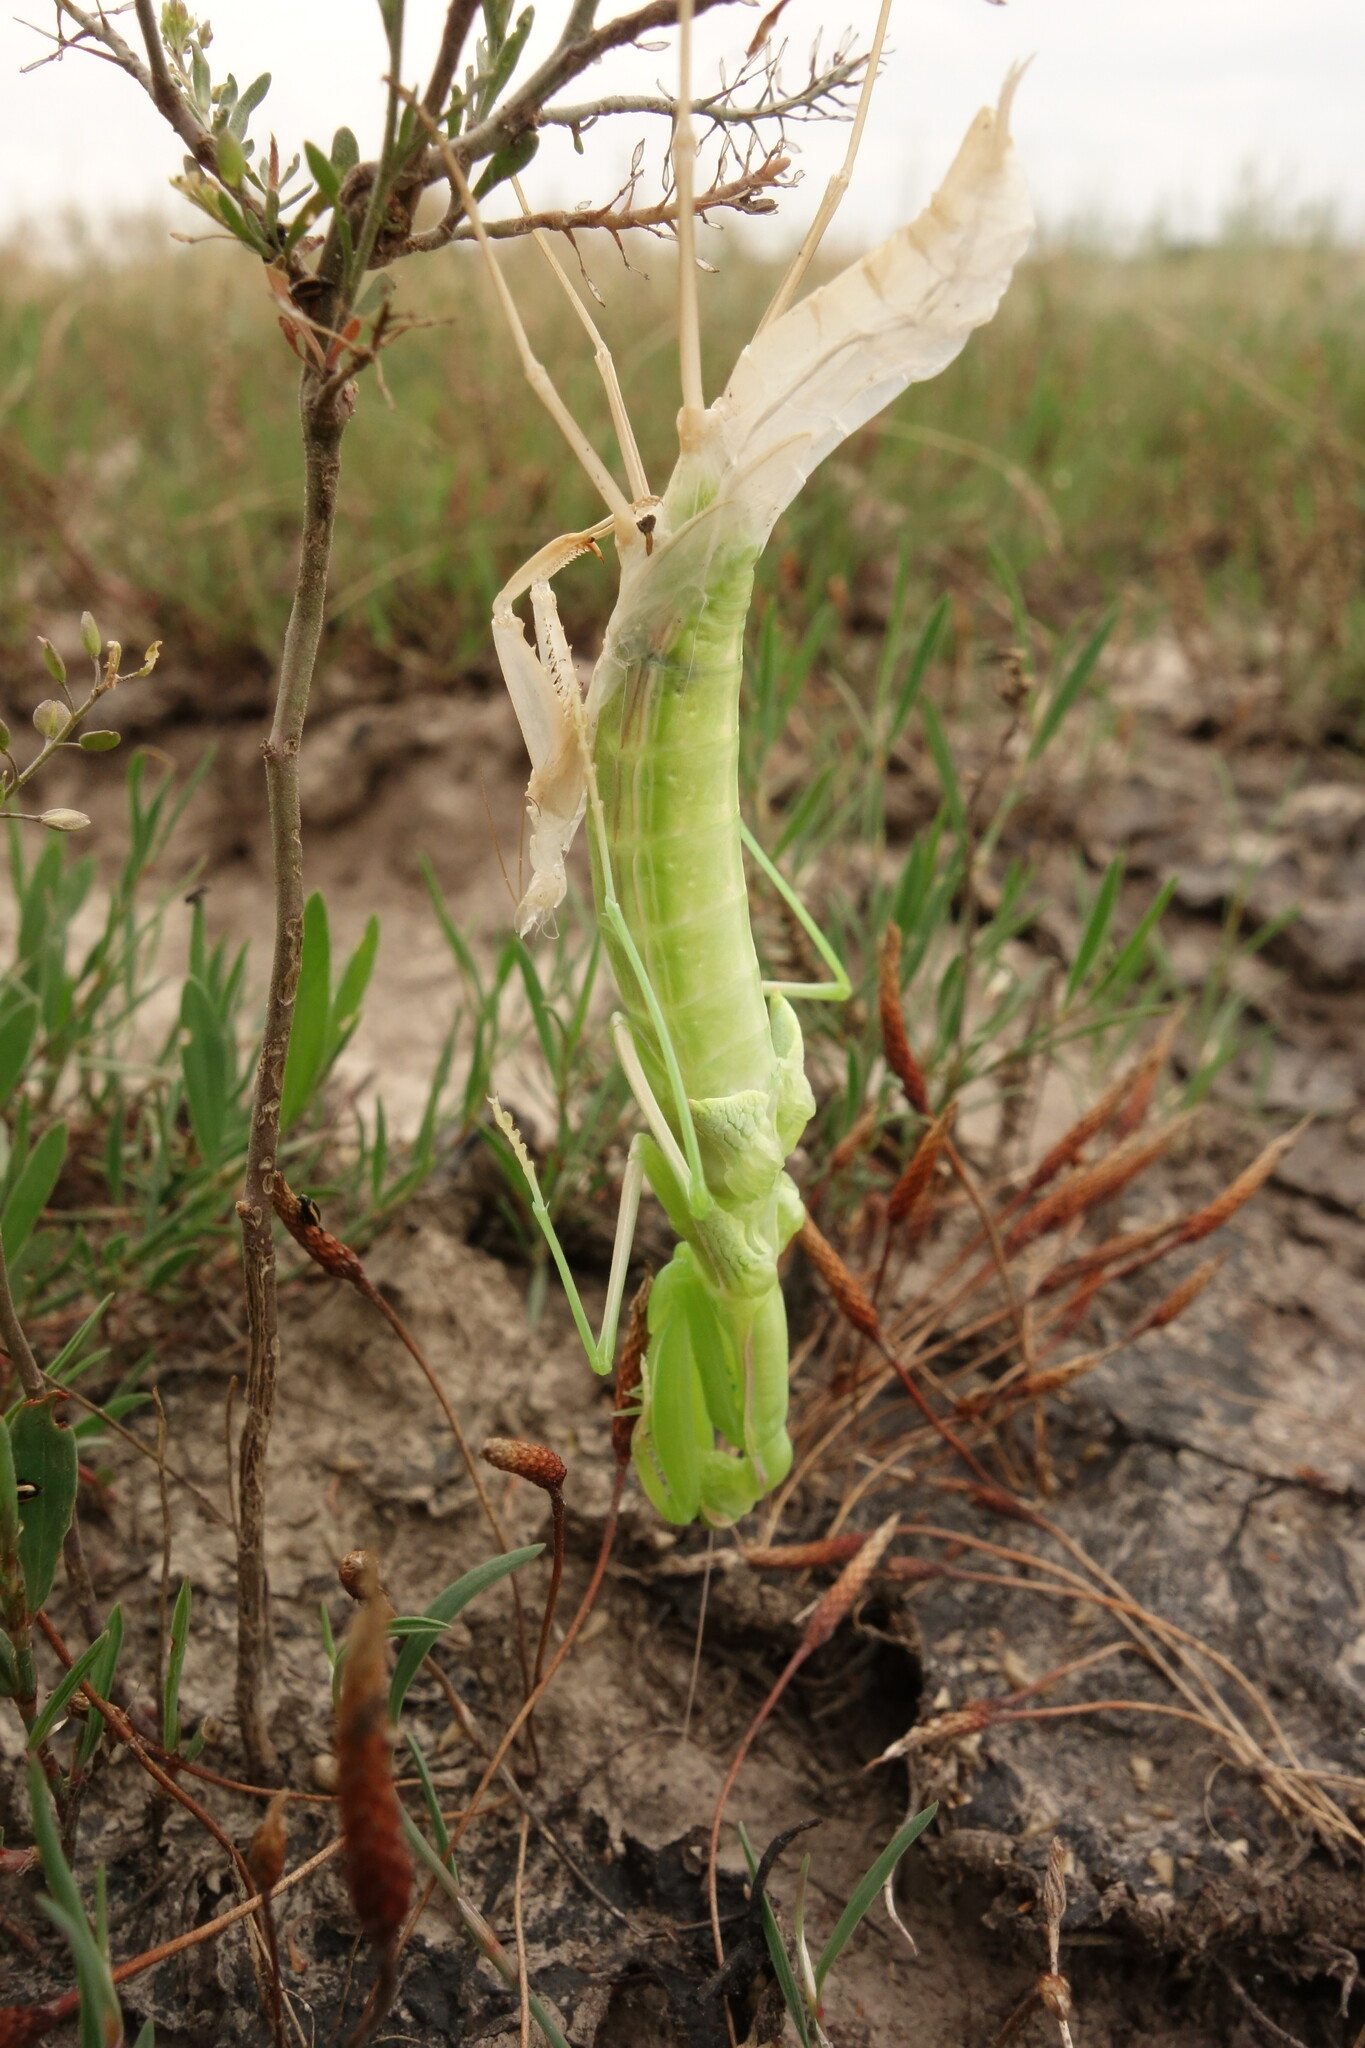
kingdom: Animalia
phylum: Arthropoda
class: Insecta
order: Mantodea
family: Mantidae
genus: Mantis
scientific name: Mantis religiosa
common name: Praying mantis
